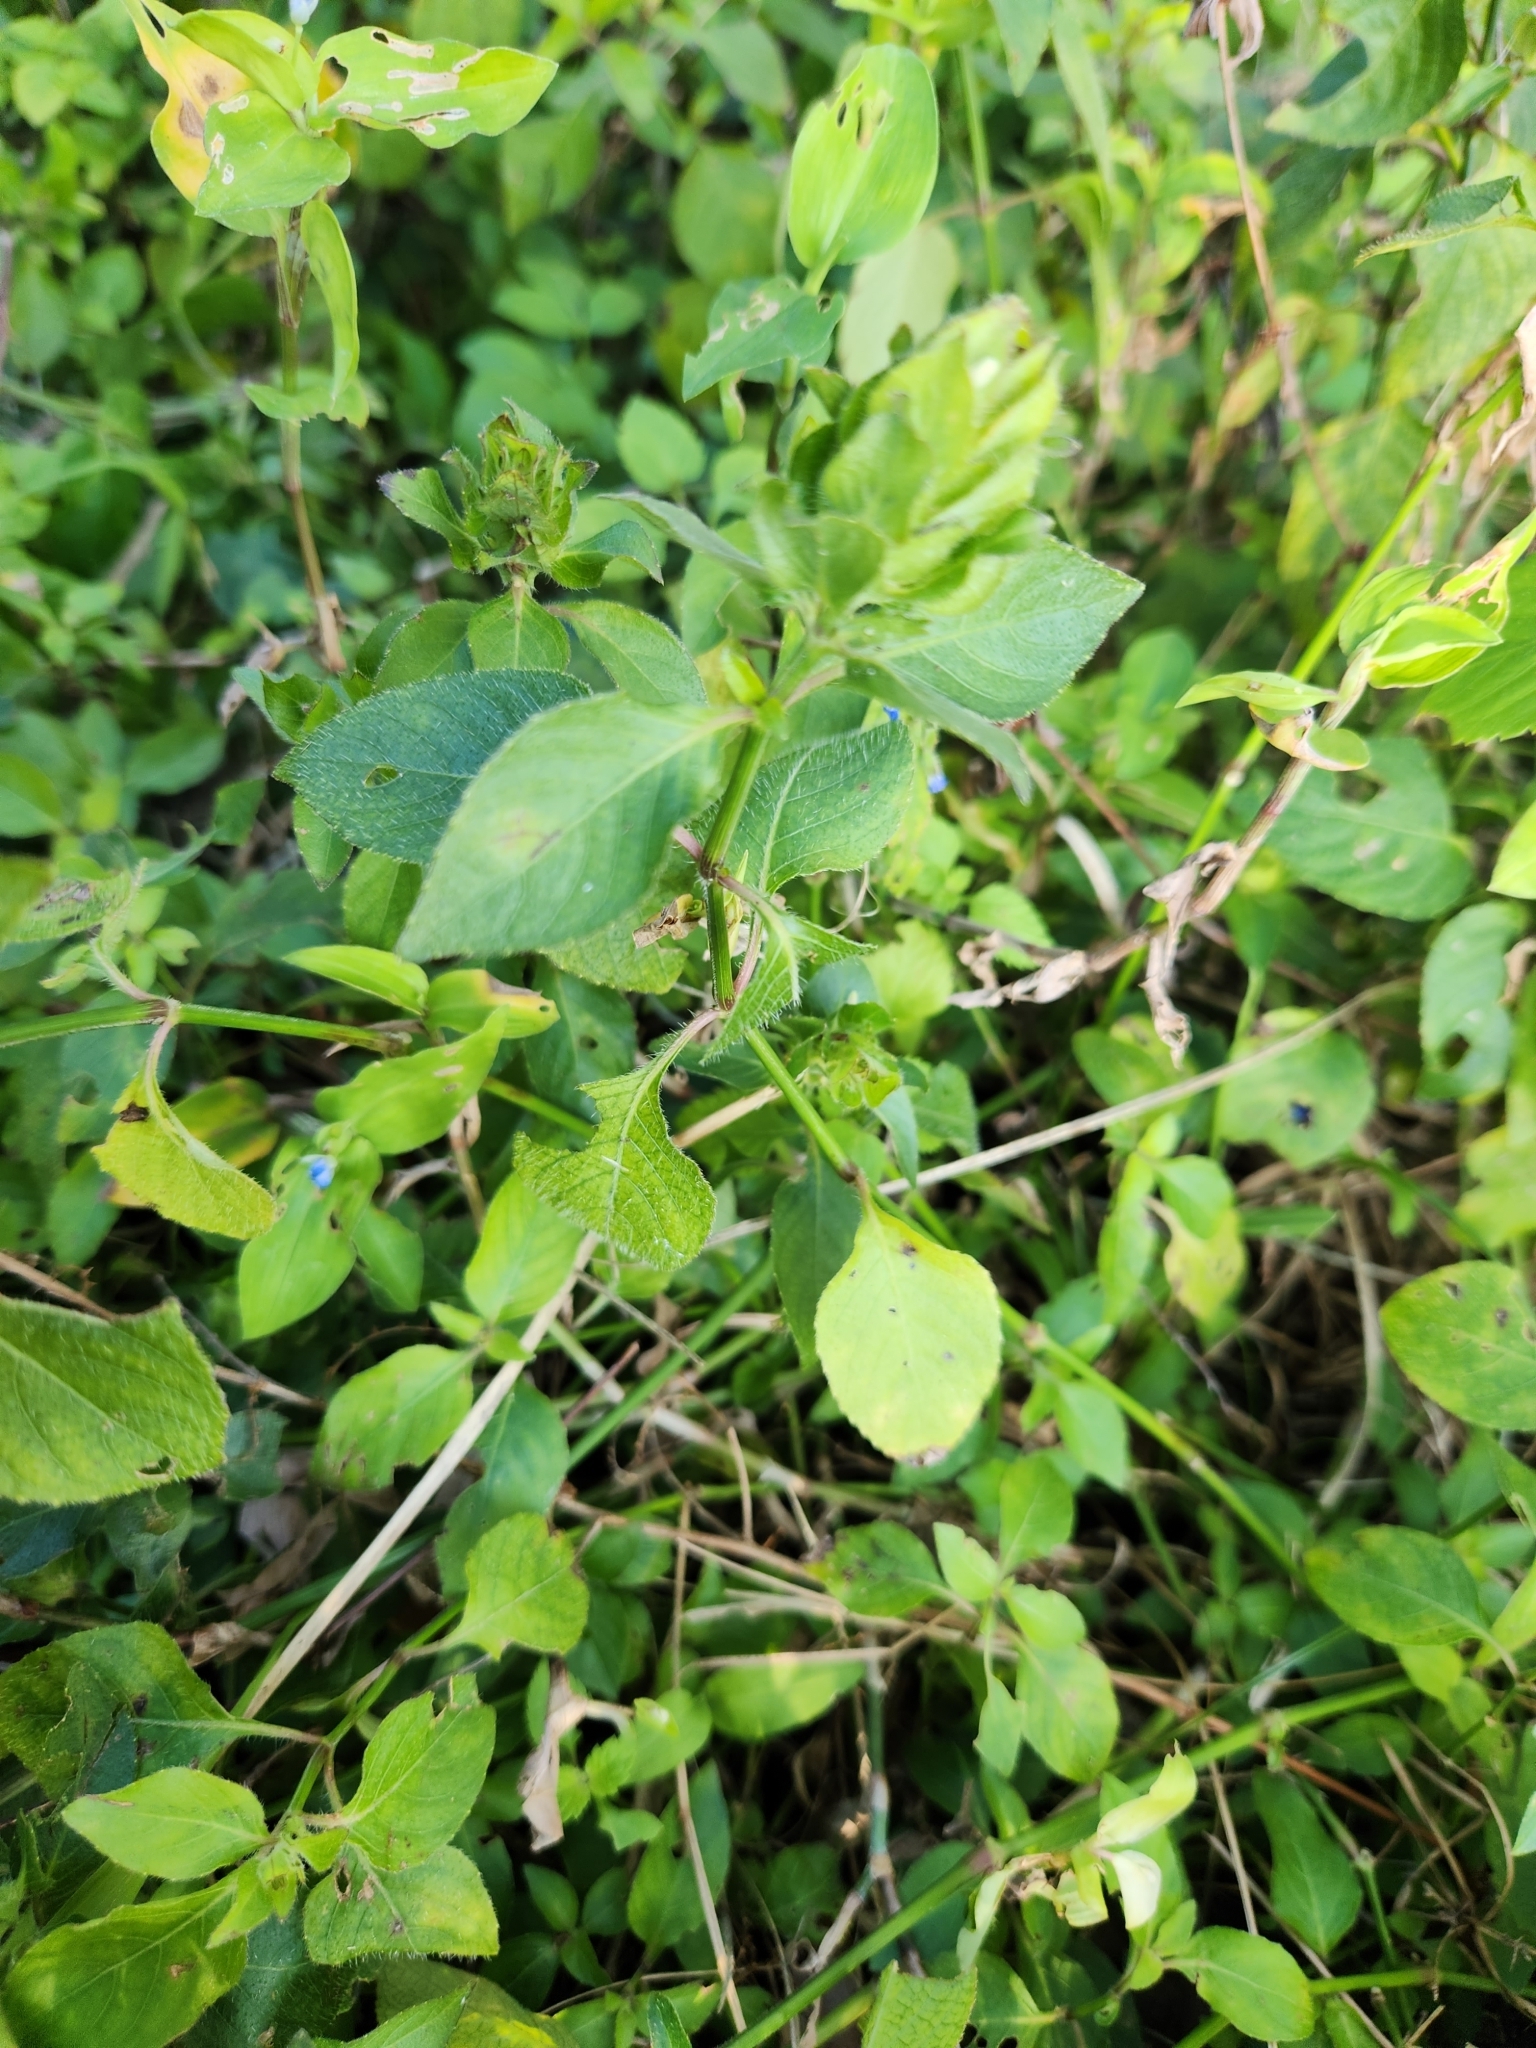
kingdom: Plantae
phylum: Tracheophyta
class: Magnoliopsida
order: Lamiales
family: Acanthaceae
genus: Ruellia
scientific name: Ruellia blechum
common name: Browne's blechum
